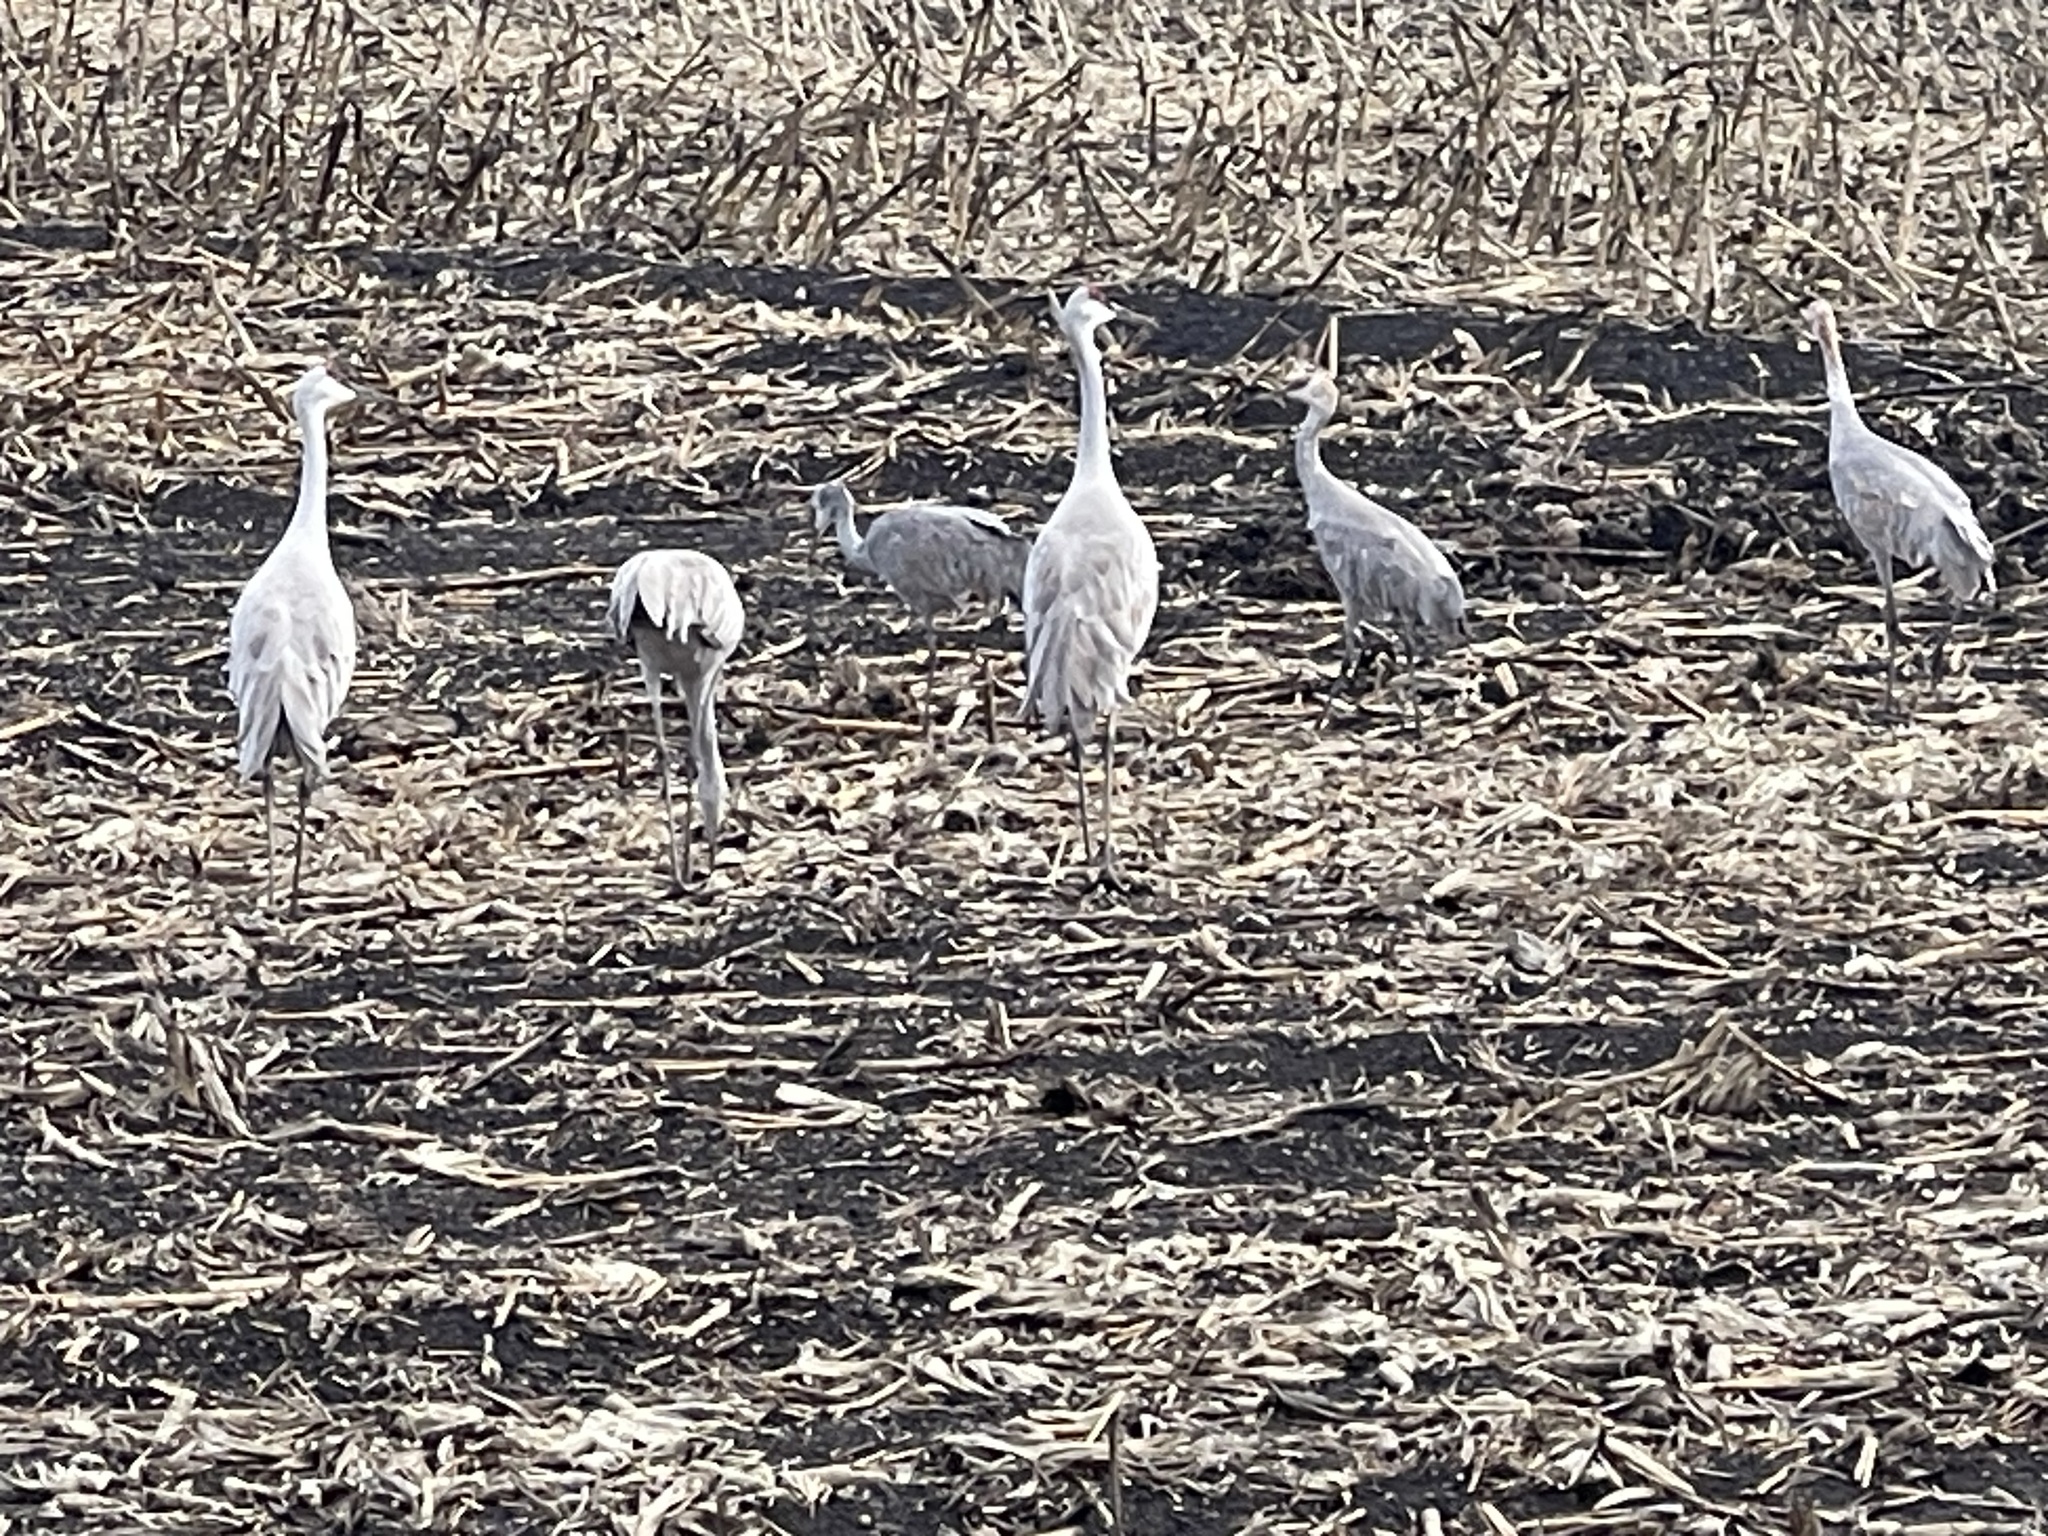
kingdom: Animalia
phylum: Chordata
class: Aves
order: Gruiformes
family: Gruidae
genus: Grus
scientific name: Grus canadensis
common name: Sandhill crane
